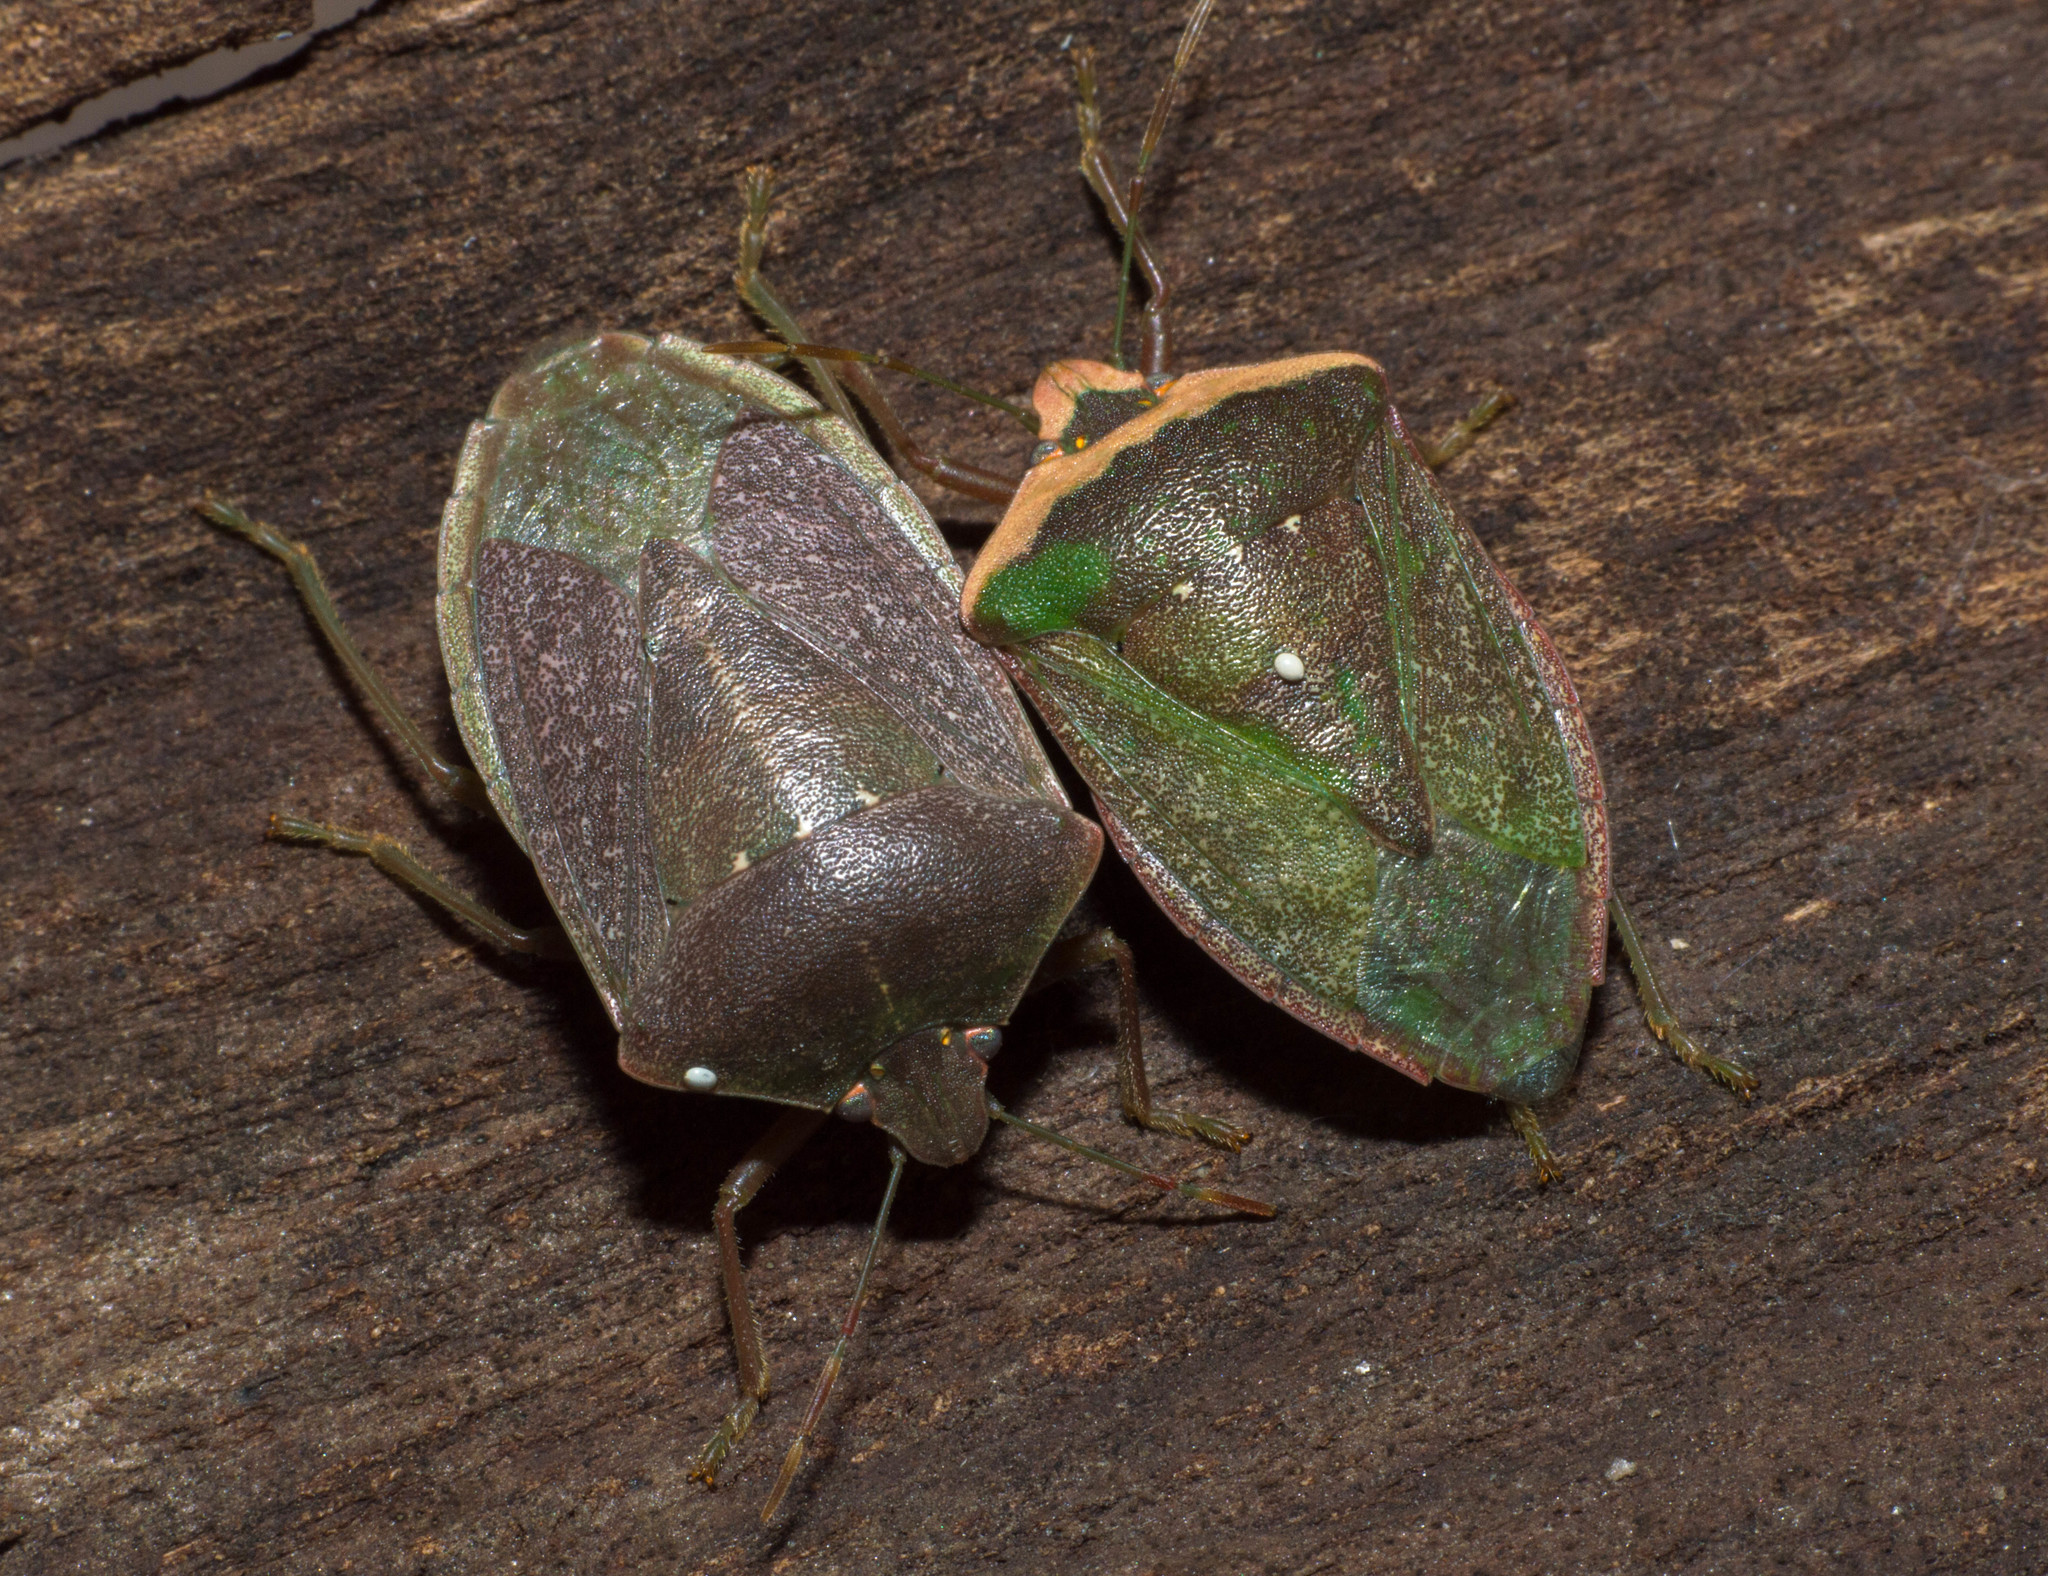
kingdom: Animalia
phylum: Arthropoda
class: Insecta
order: Hemiptera
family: Pentatomidae
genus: Nezara
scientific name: Nezara viridula
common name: Southern green stink bug
